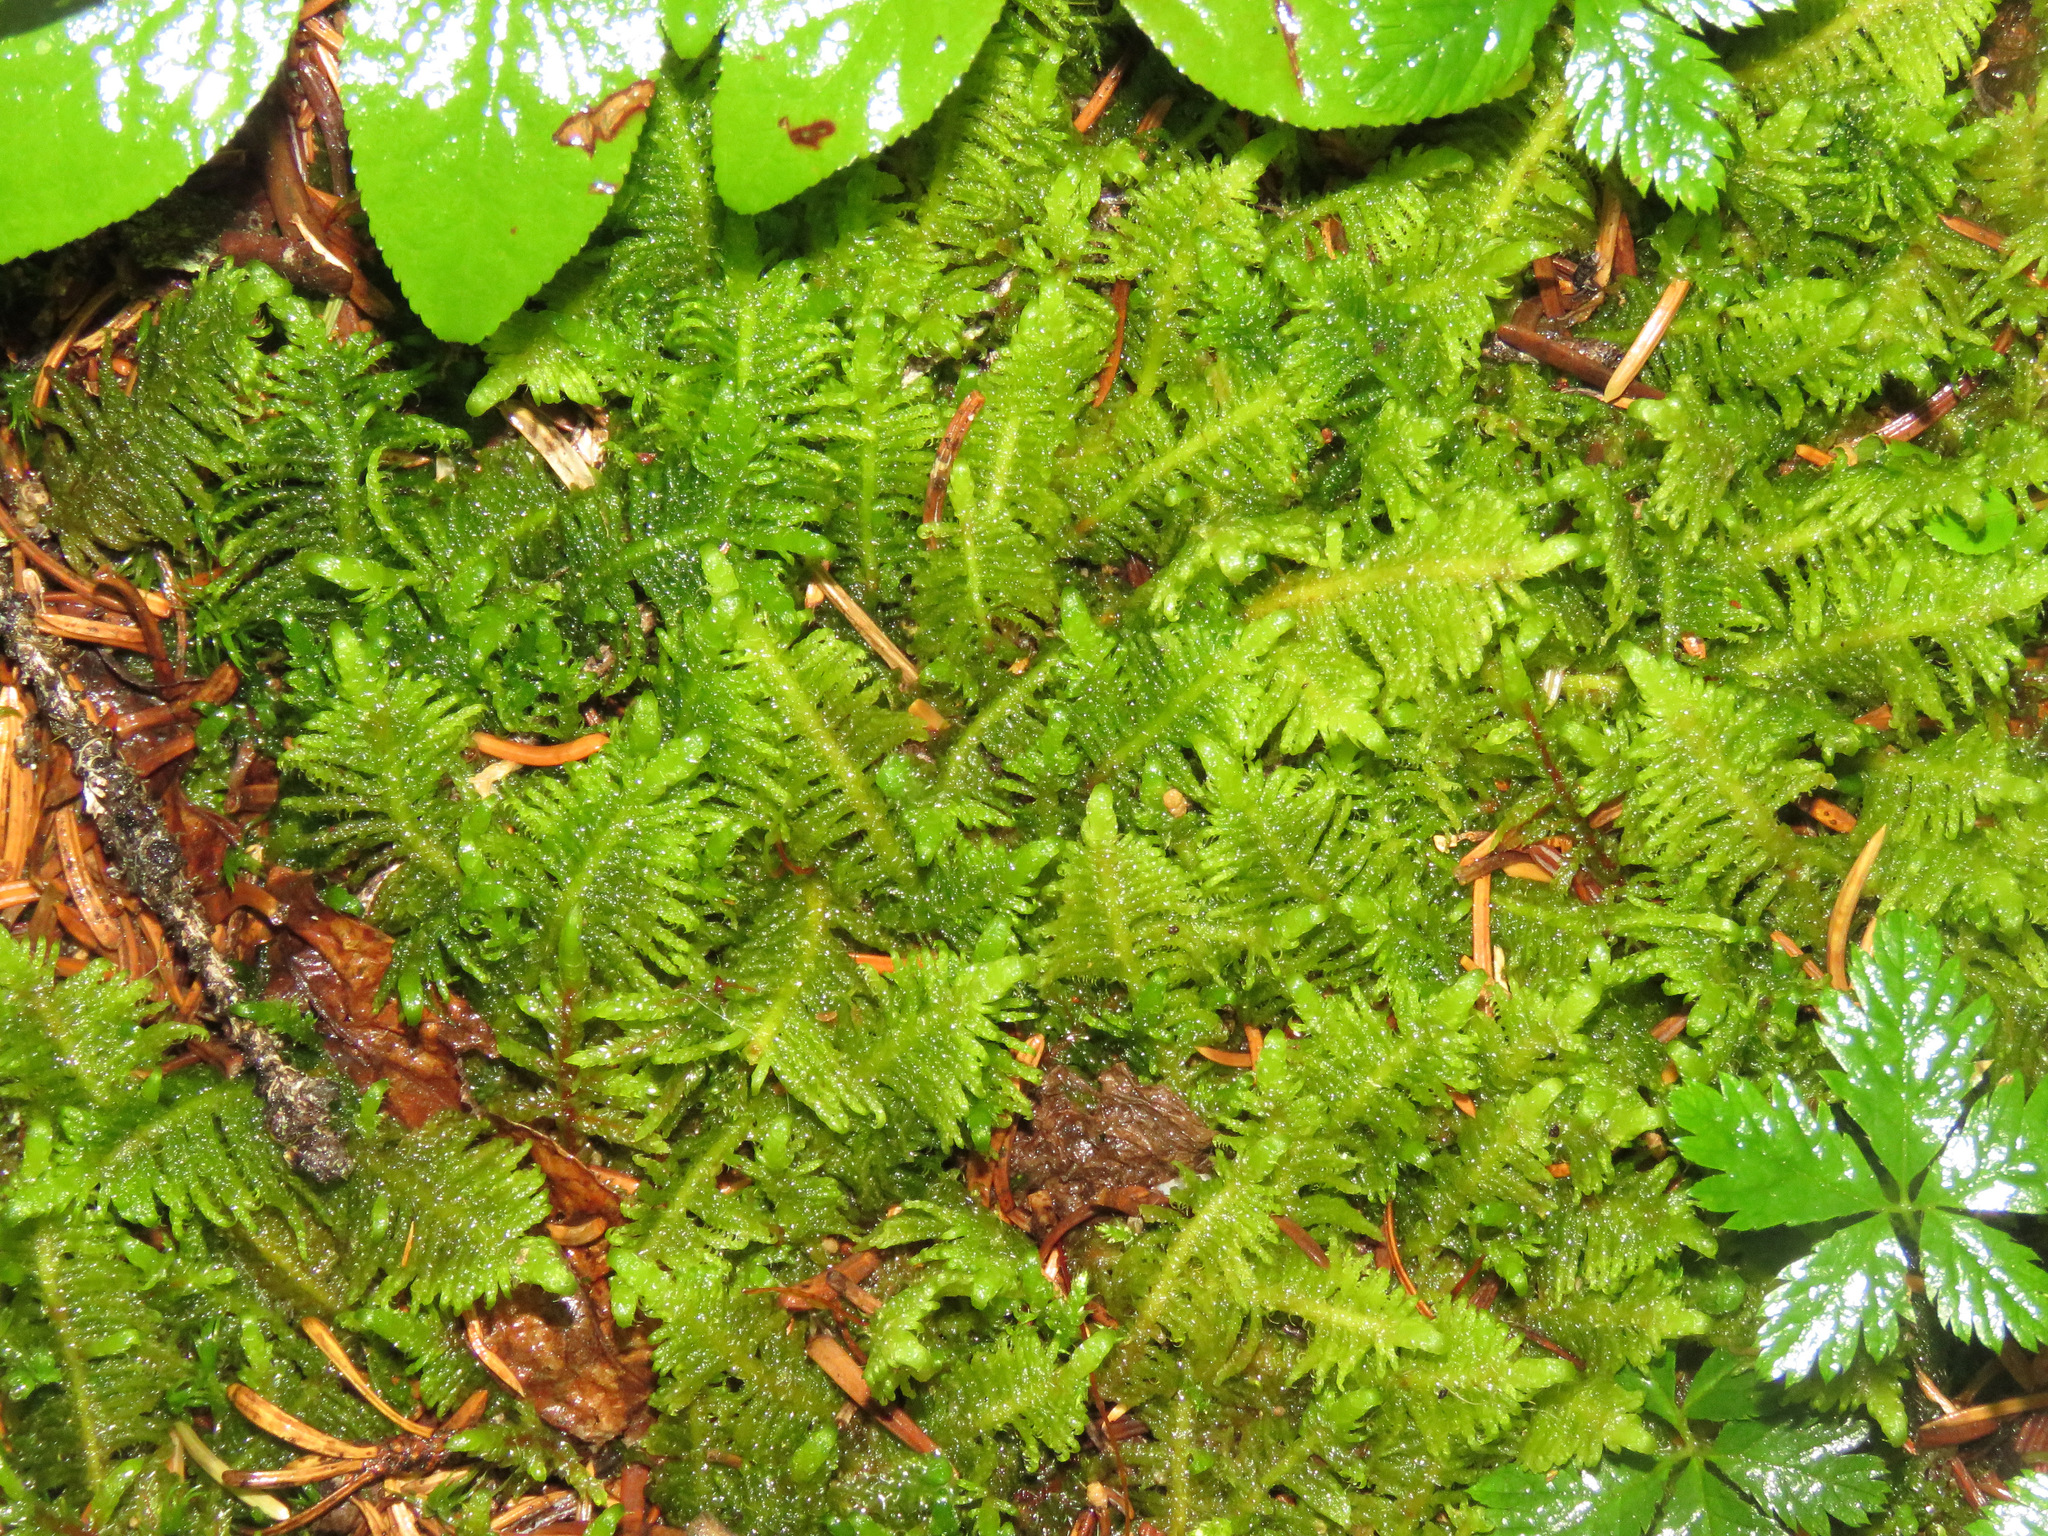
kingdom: Plantae
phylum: Bryophyta
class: Bryopsida
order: Hypnales
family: Pylaisiaceae
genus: Ptilium
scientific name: Ptilium crista-castrensis
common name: Knight's plume moss
